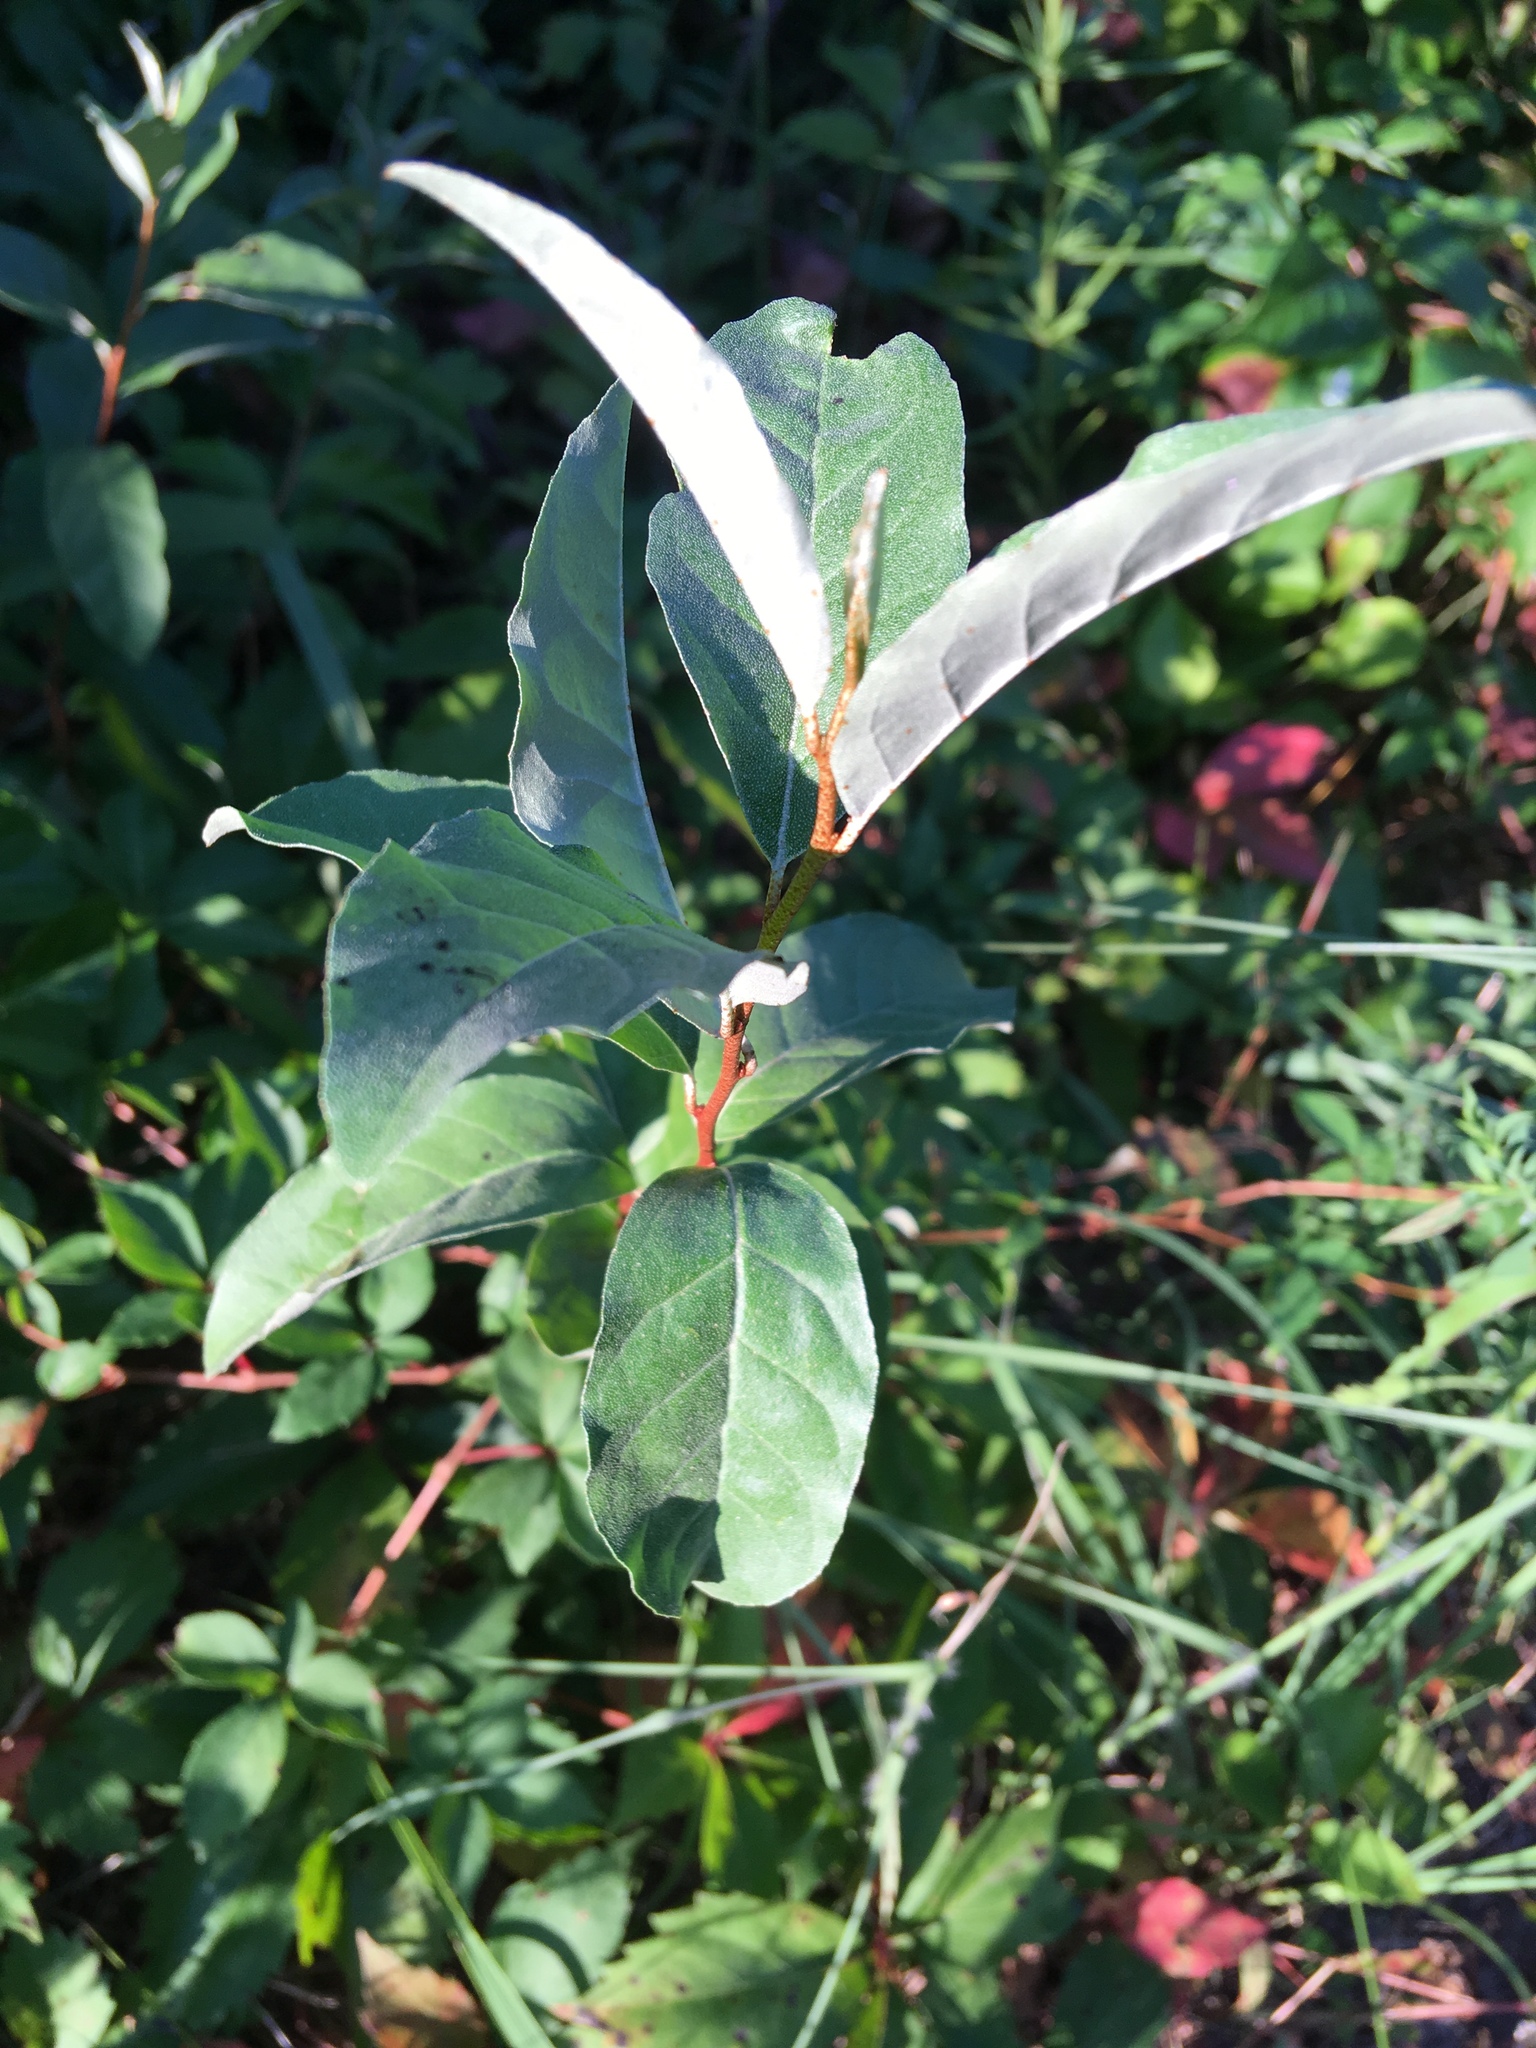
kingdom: Plantae
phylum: Tracheophyta
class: Magnoliopsida
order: Rosales
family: Elaeagnaceae
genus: Elaeagnus
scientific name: Elaeagnus umbellata
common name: Autumn olive
